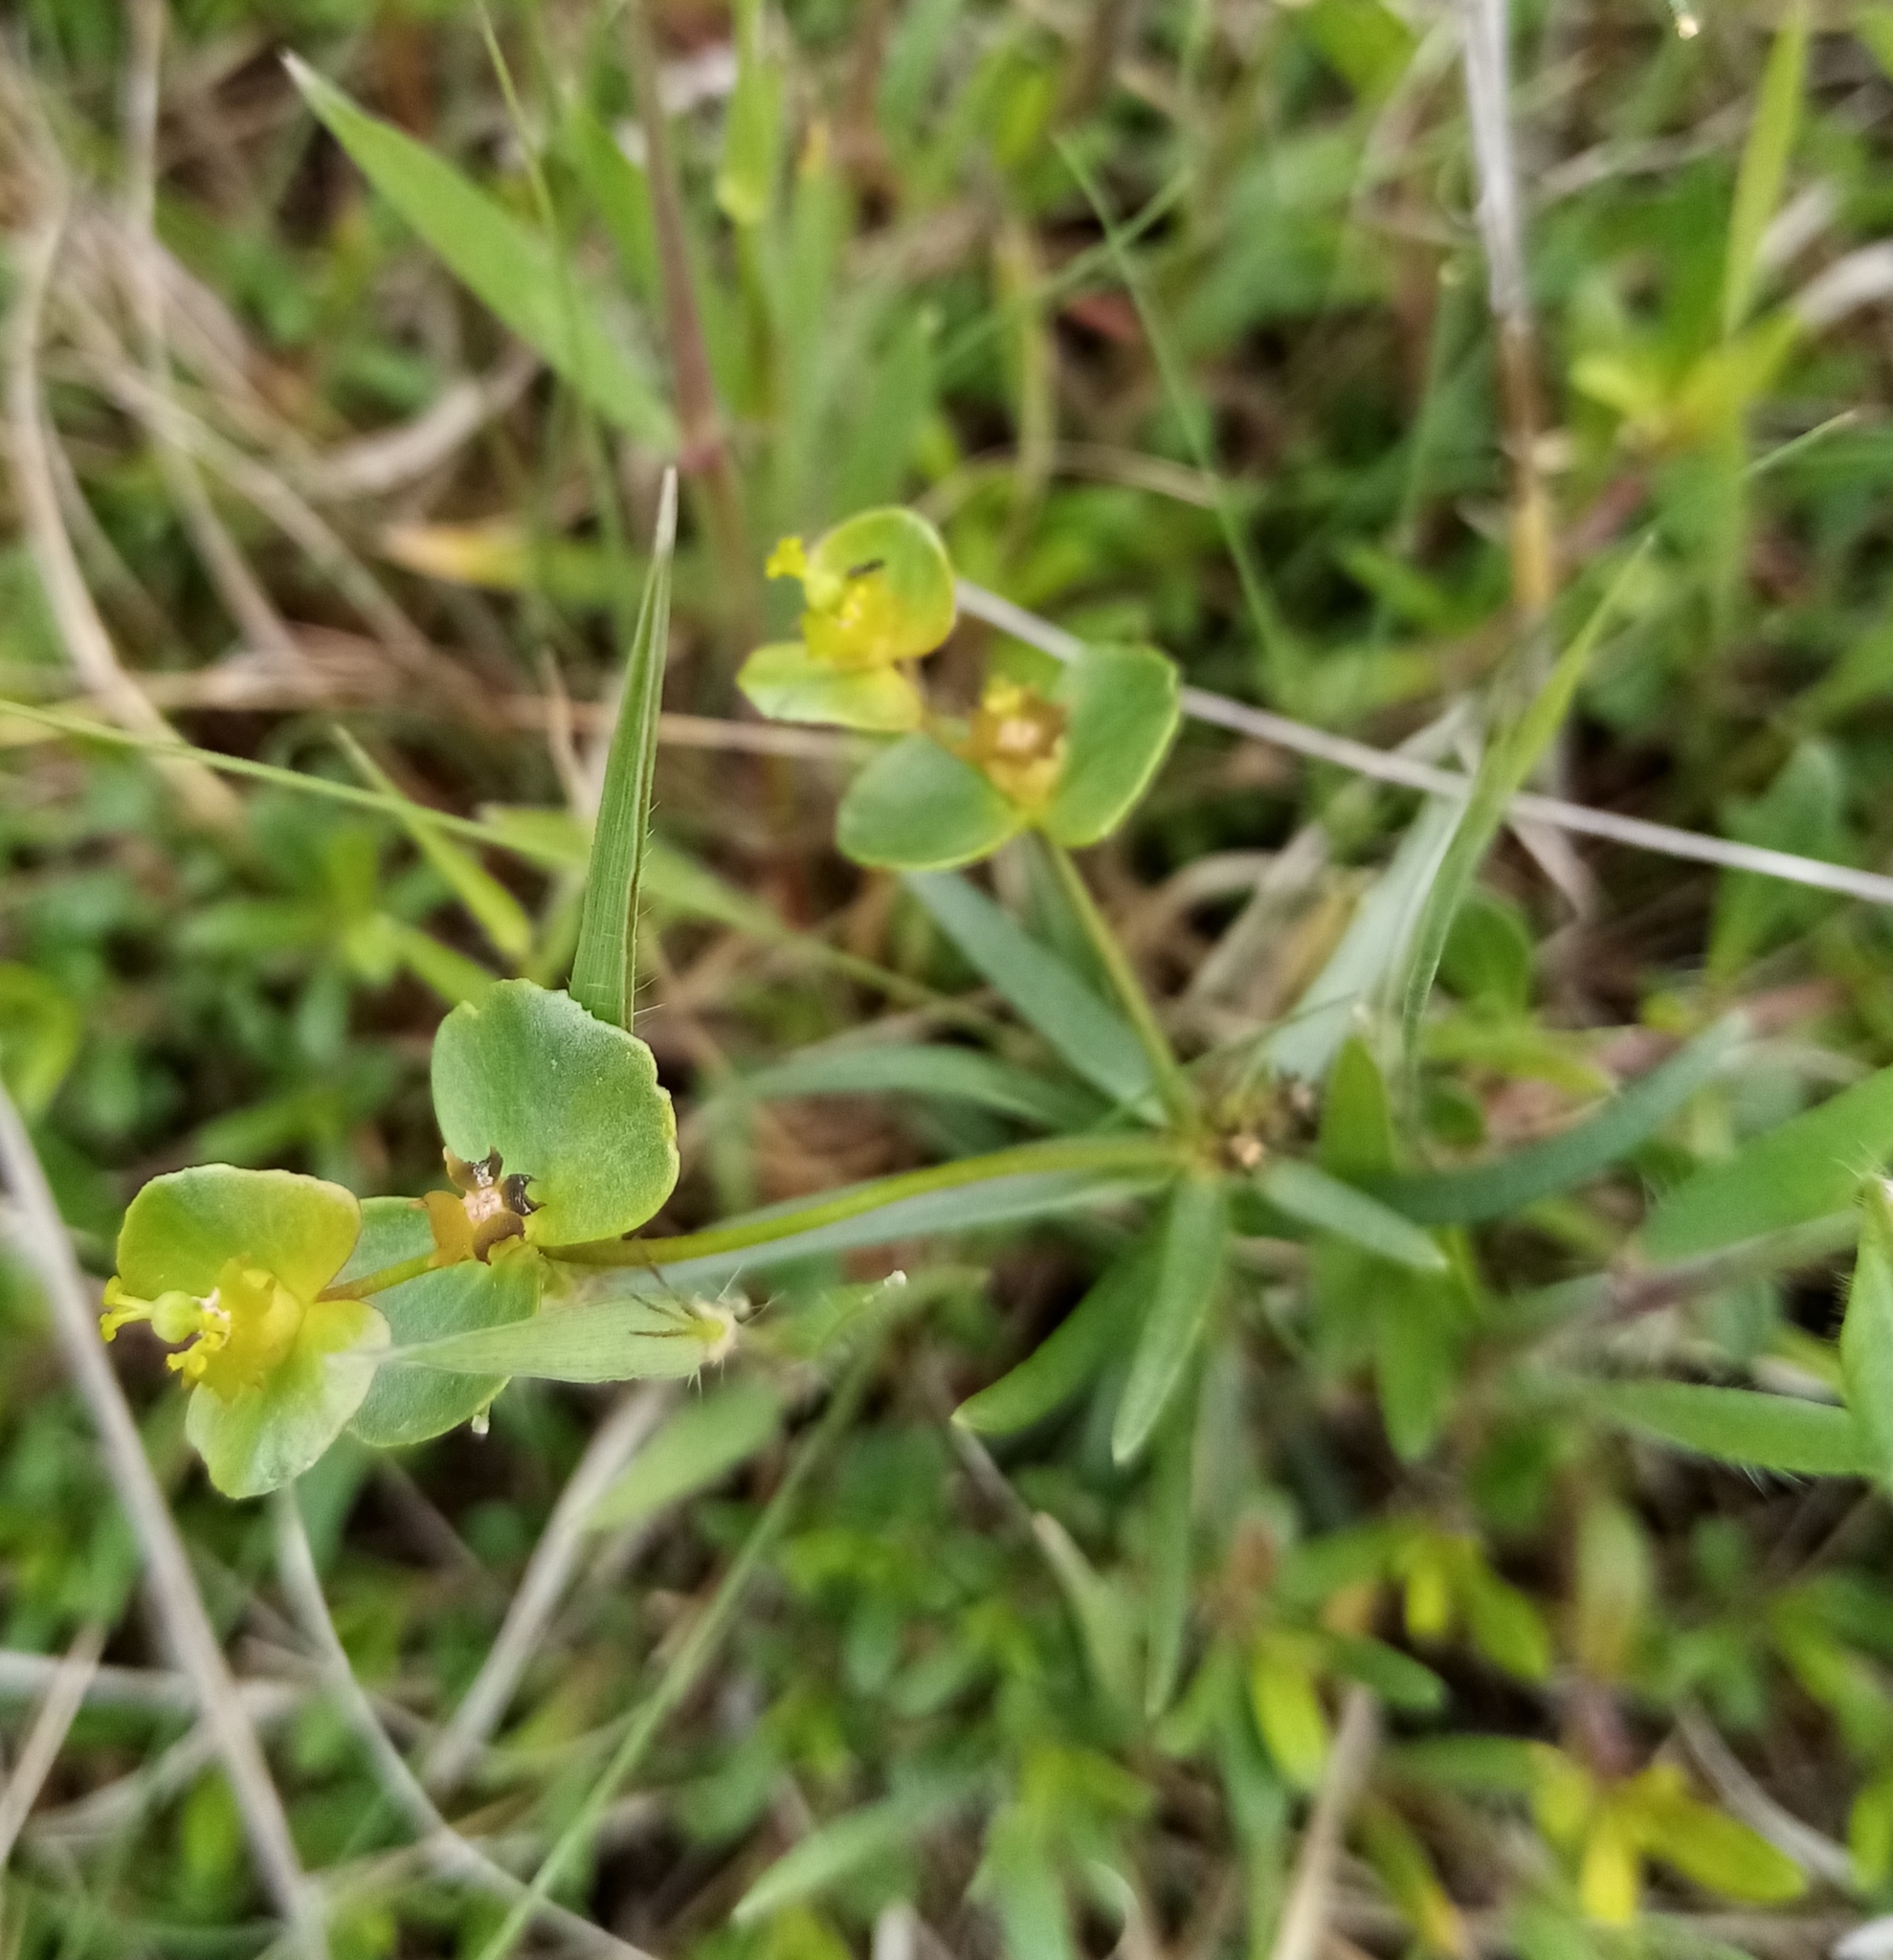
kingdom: Plantae
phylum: Tracheophyta
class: Magnoliopsida
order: Malpighiales
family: Euphorbiaceae
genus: Euphorbia
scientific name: Euphorbia leptocaula
